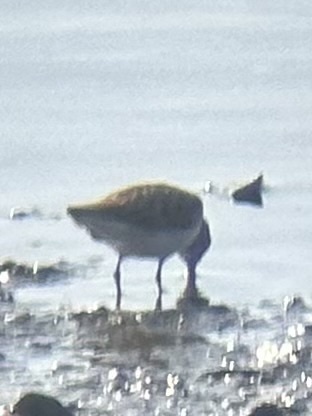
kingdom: Animalia
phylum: Chordata
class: Aves
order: Charadriiformes
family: Scolopacidae
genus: Calidris
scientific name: Calidris minutilla
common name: Least sandpiper
